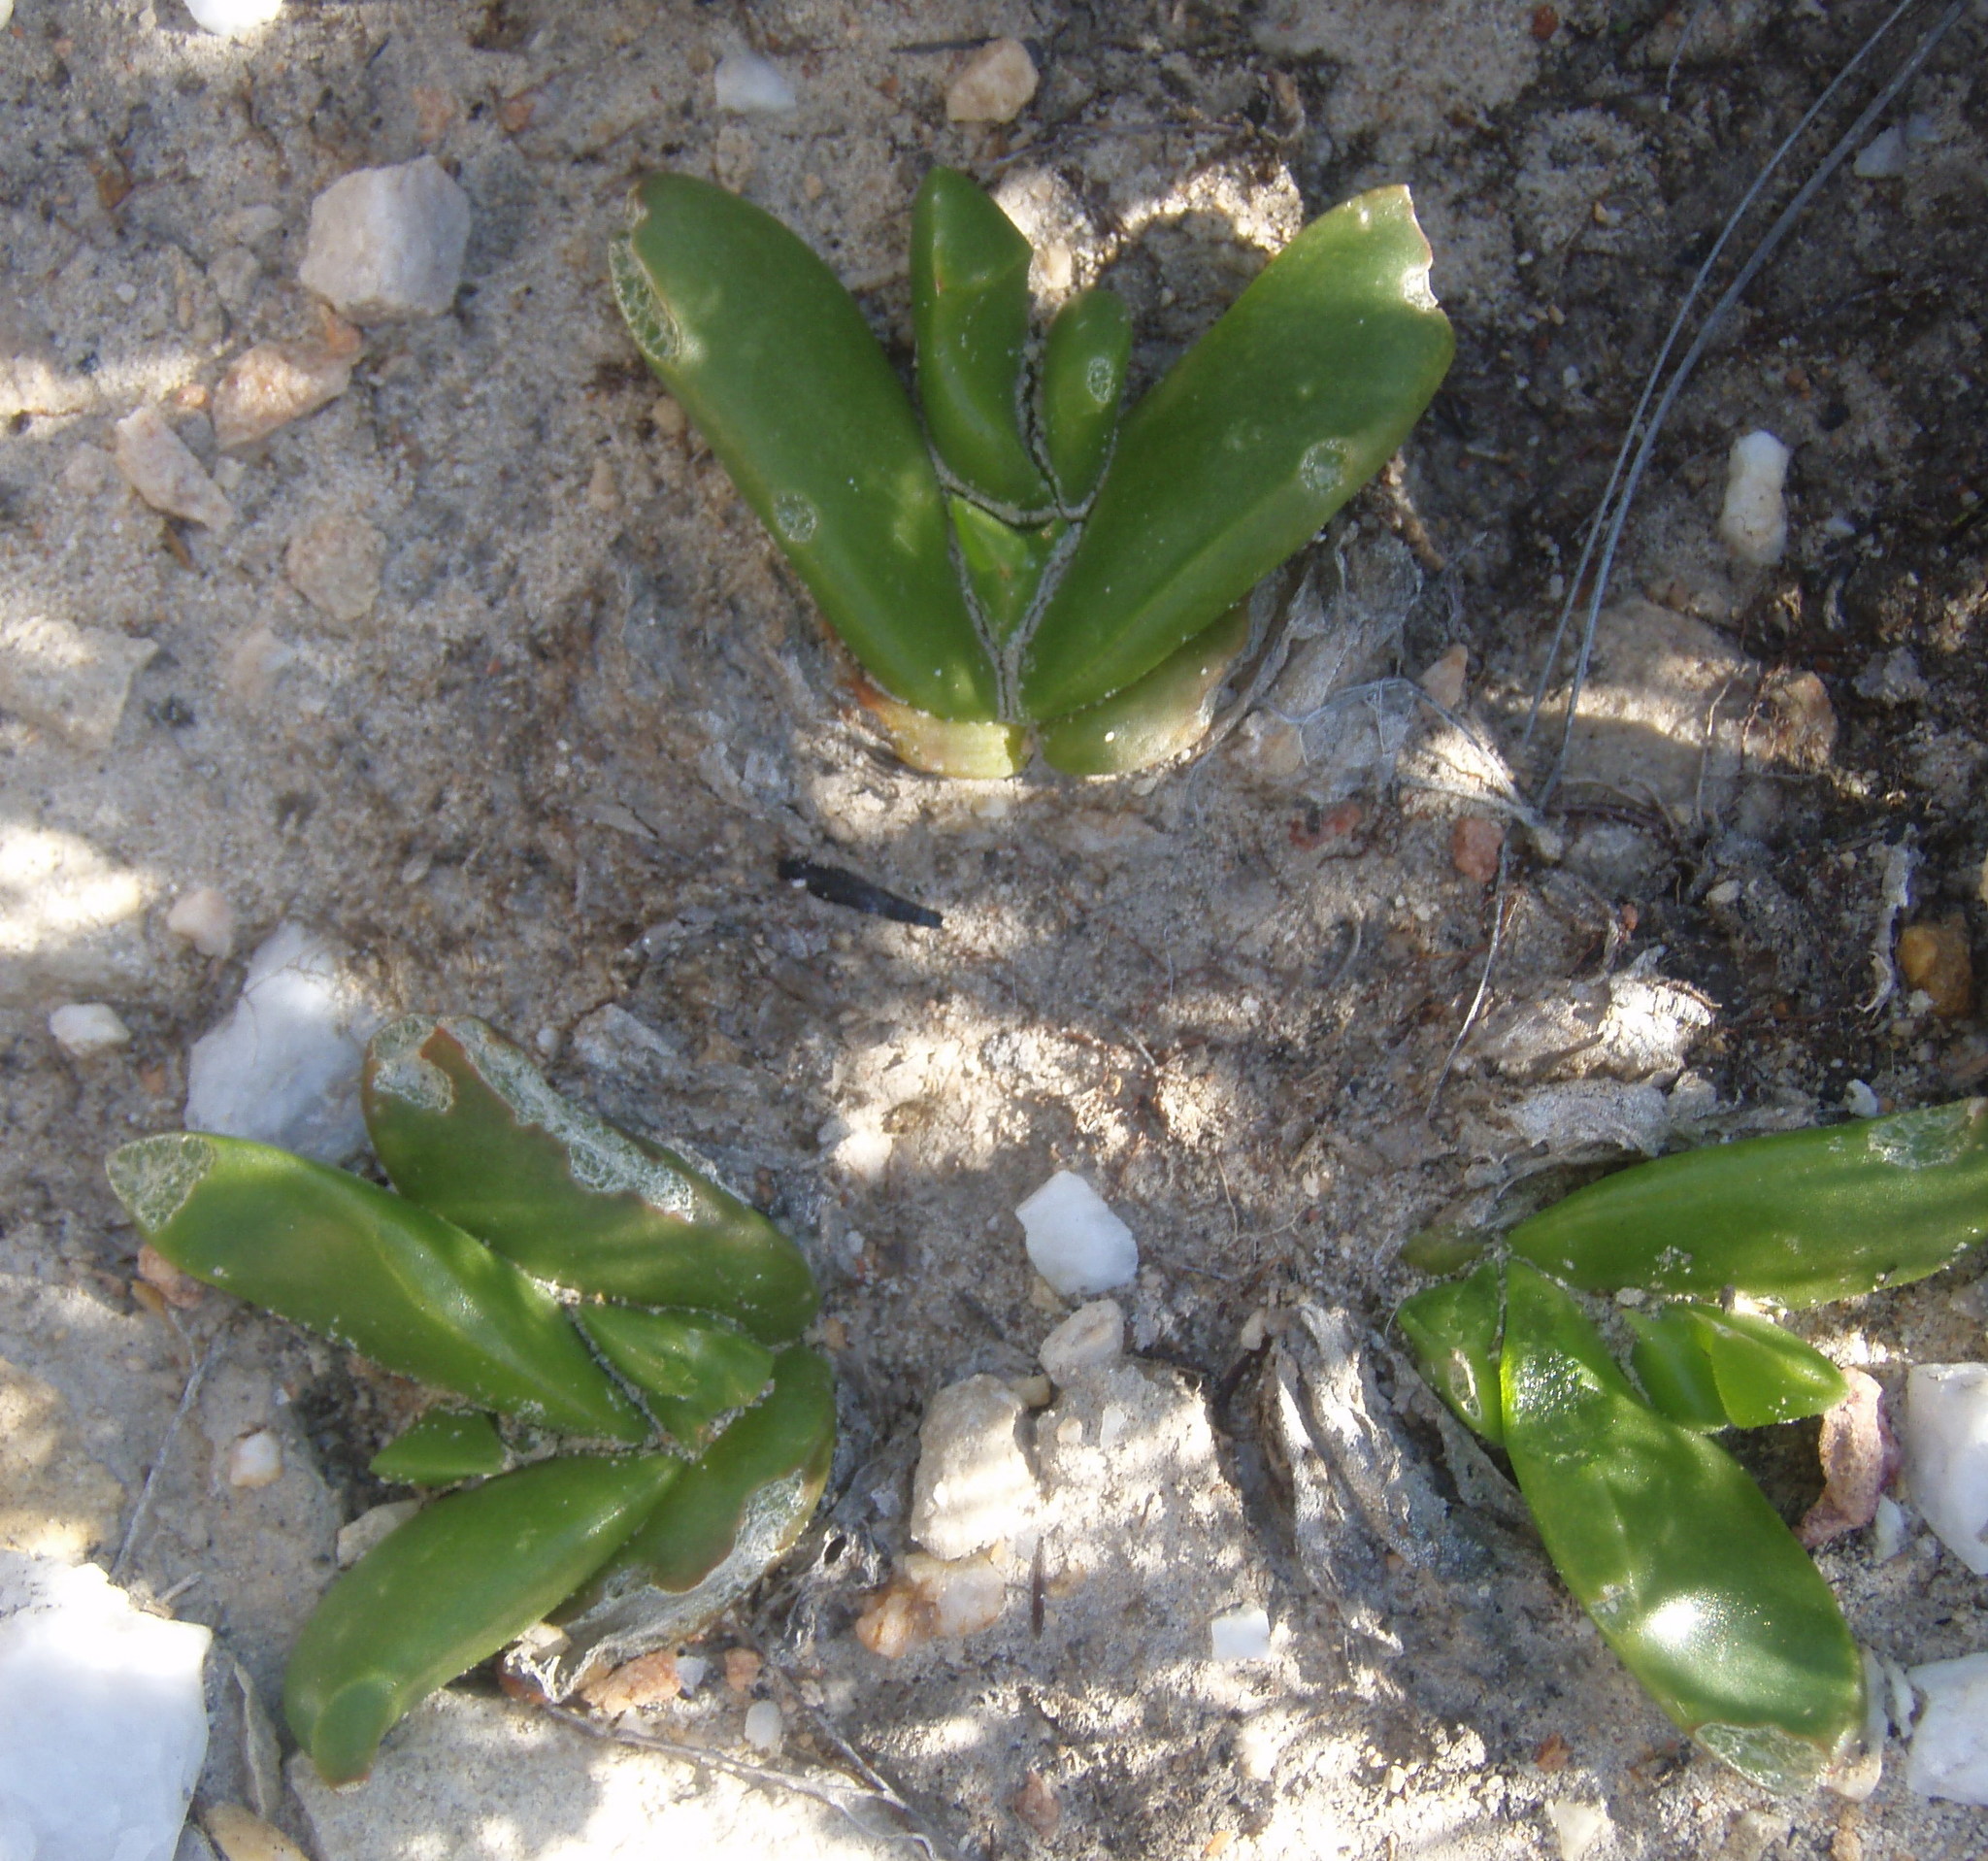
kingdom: Plantae
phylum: Tracheophyta
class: Magnoliopsida
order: Caryophyllales
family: Aizoaceae
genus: Glottiphyllum
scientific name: Glottiphyllum depressum
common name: Fig-marigold
